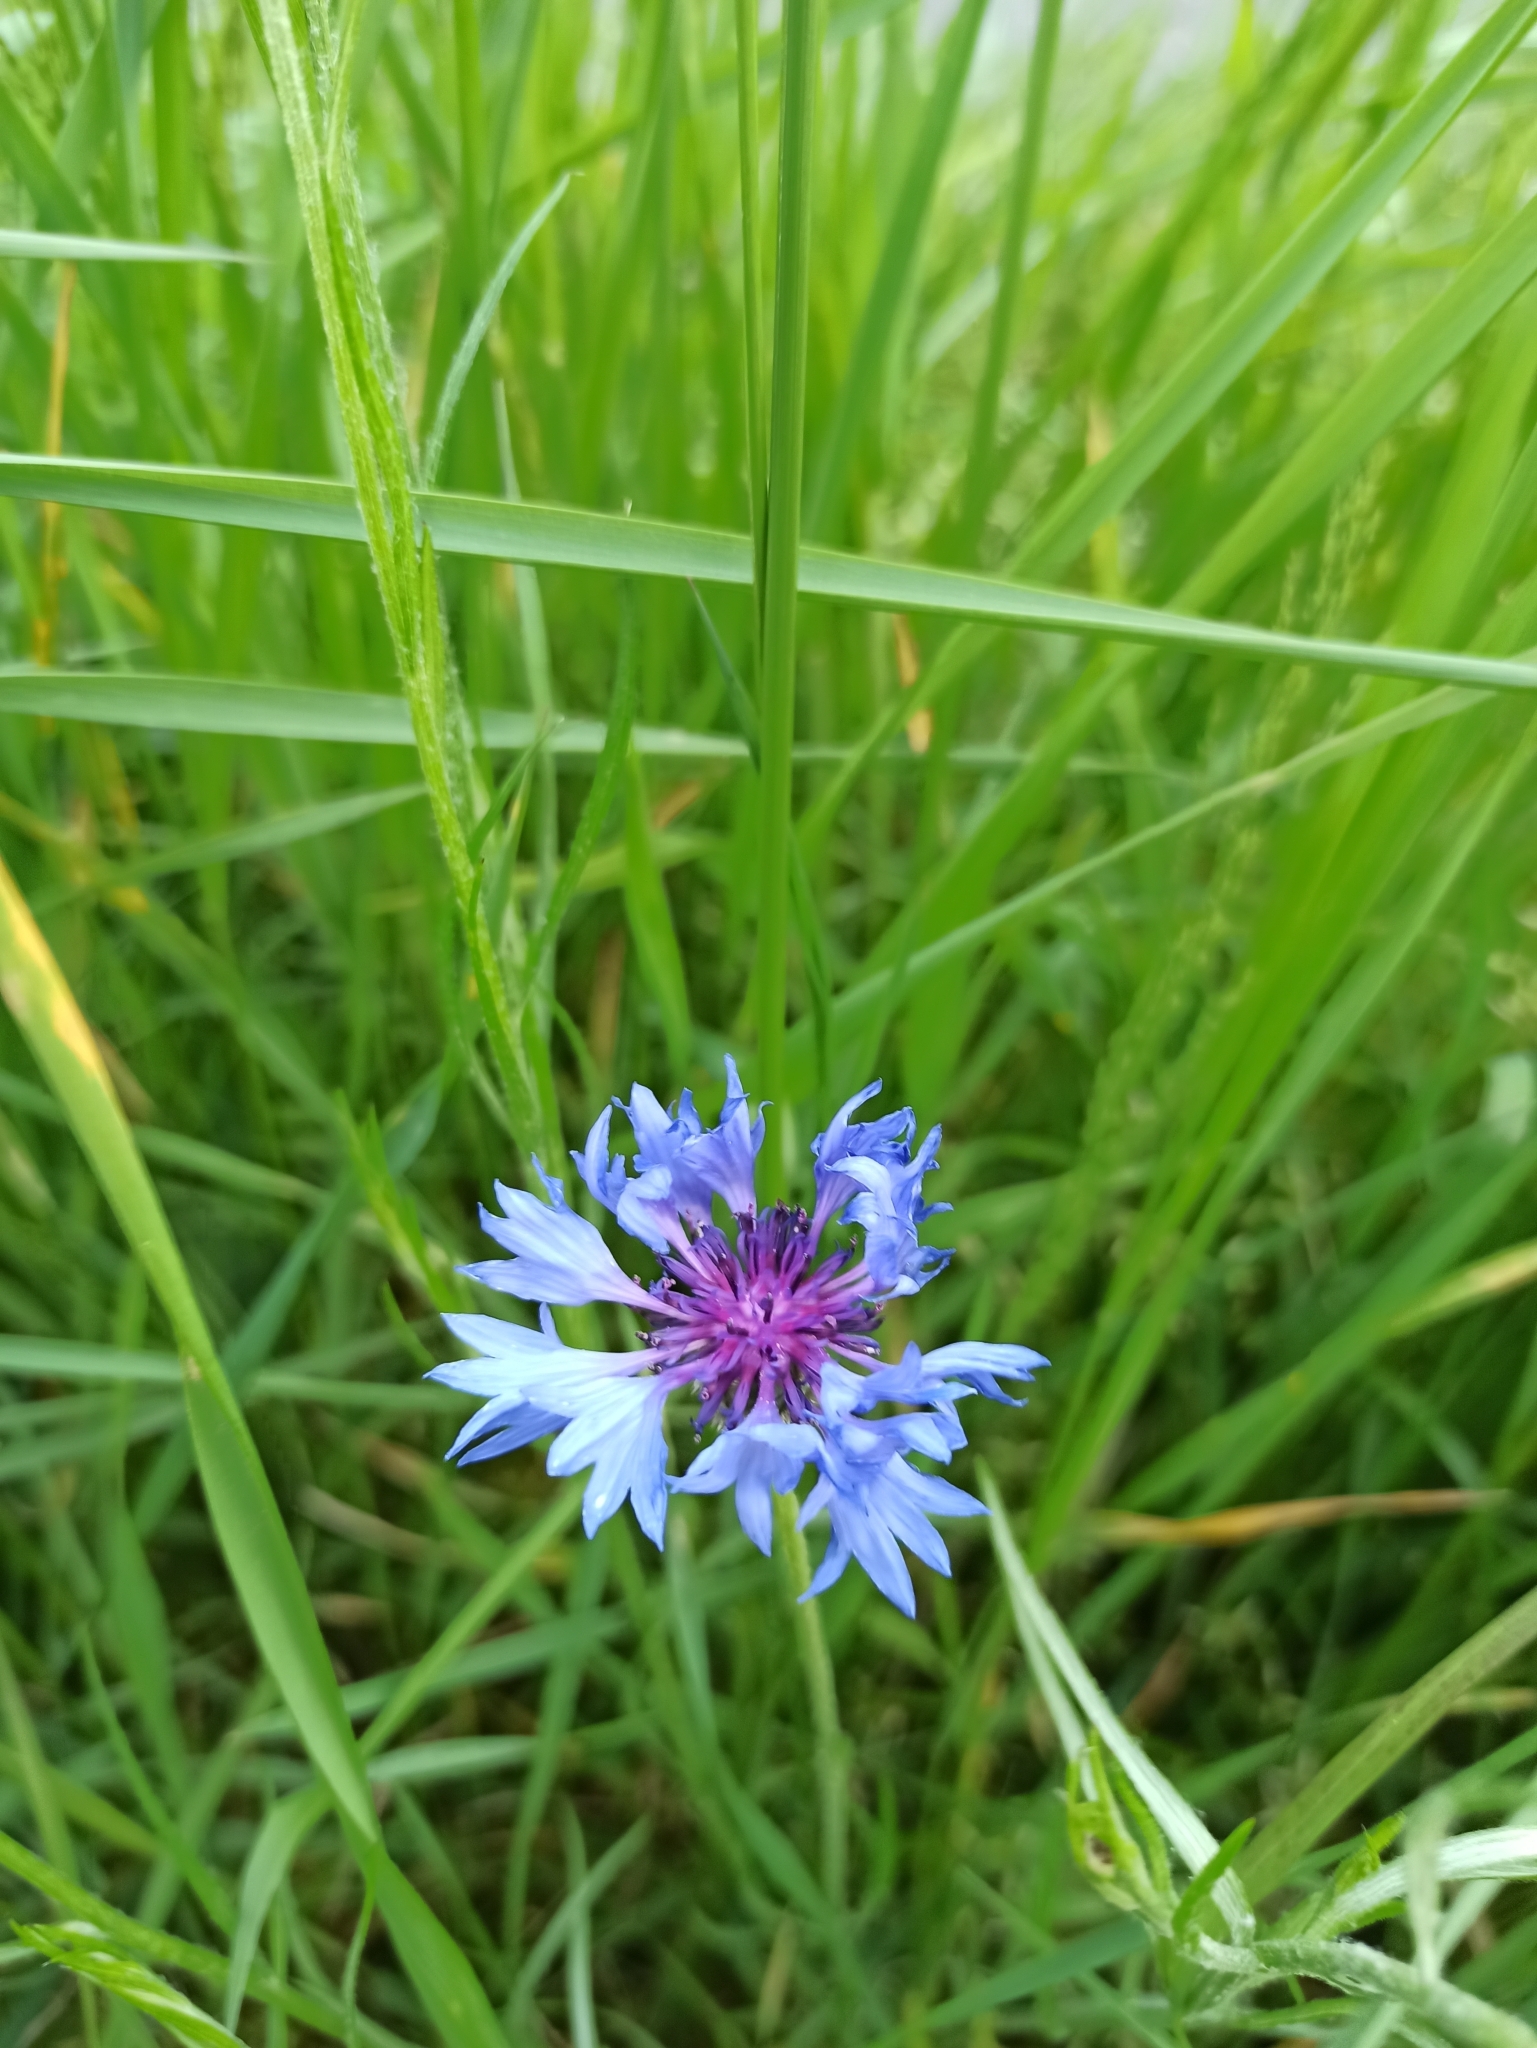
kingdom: Plantae
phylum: Tracheophyta
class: Magnoliopsida
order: Asterales
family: Asteraceae
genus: Centaurea
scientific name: Centaurea cyanus
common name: Cornflower
